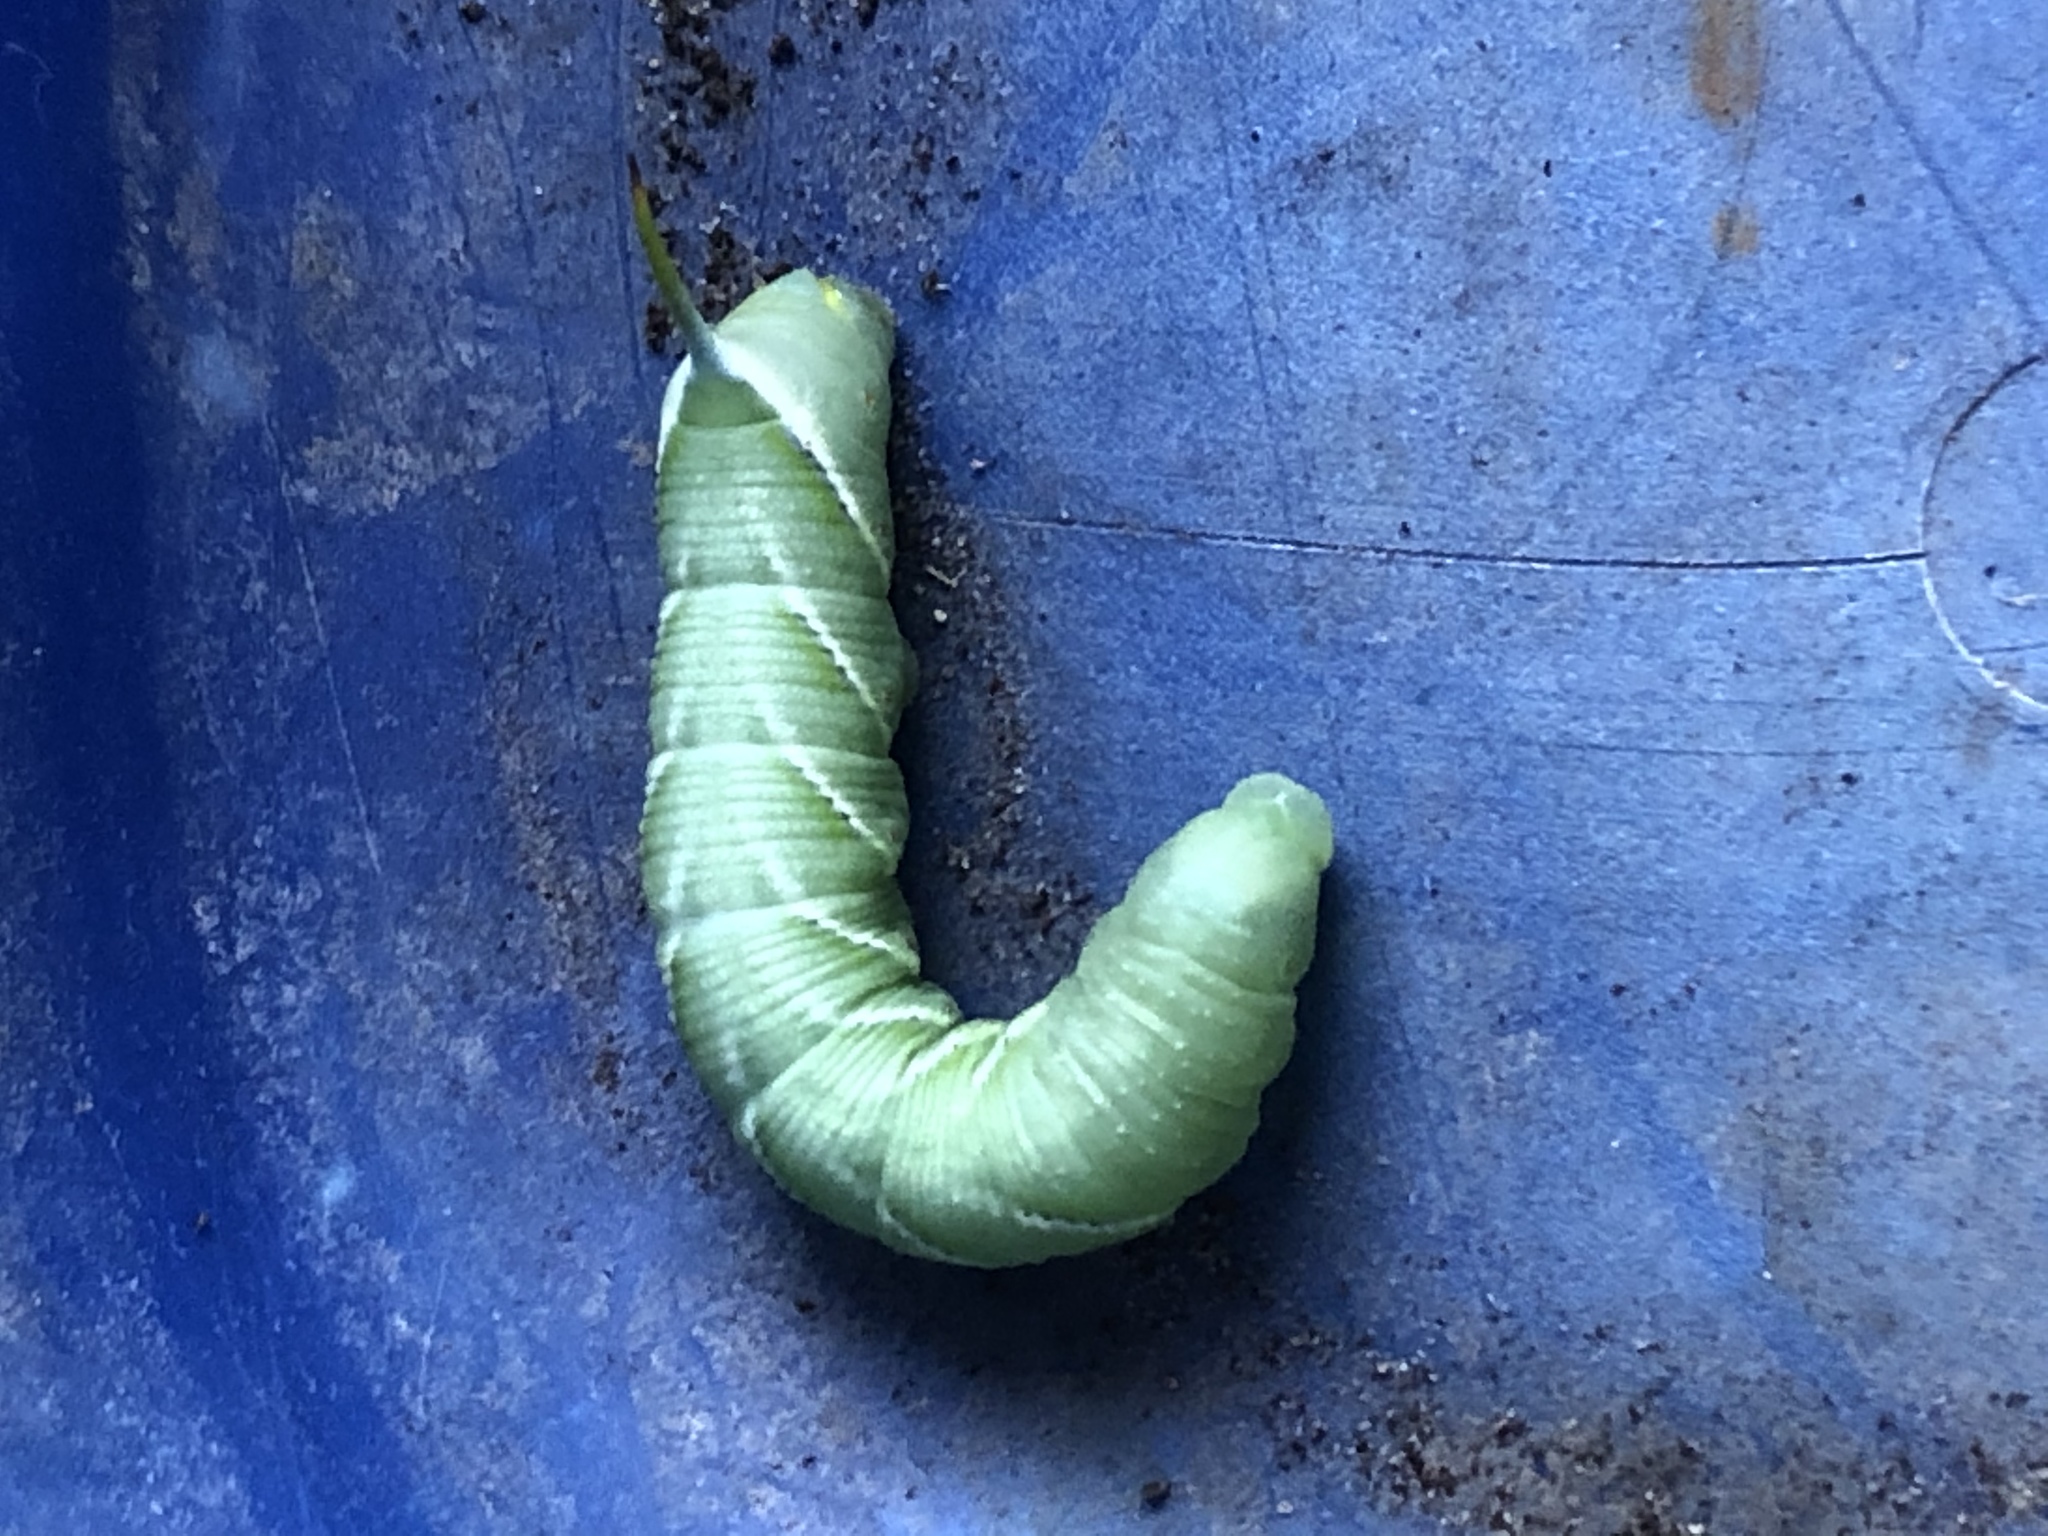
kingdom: Animalia
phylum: Arthropoda
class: Insecta
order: Lepidoptera
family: Sphingidae
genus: Manduca
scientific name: Manduca sexta
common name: Carolina sphinx
